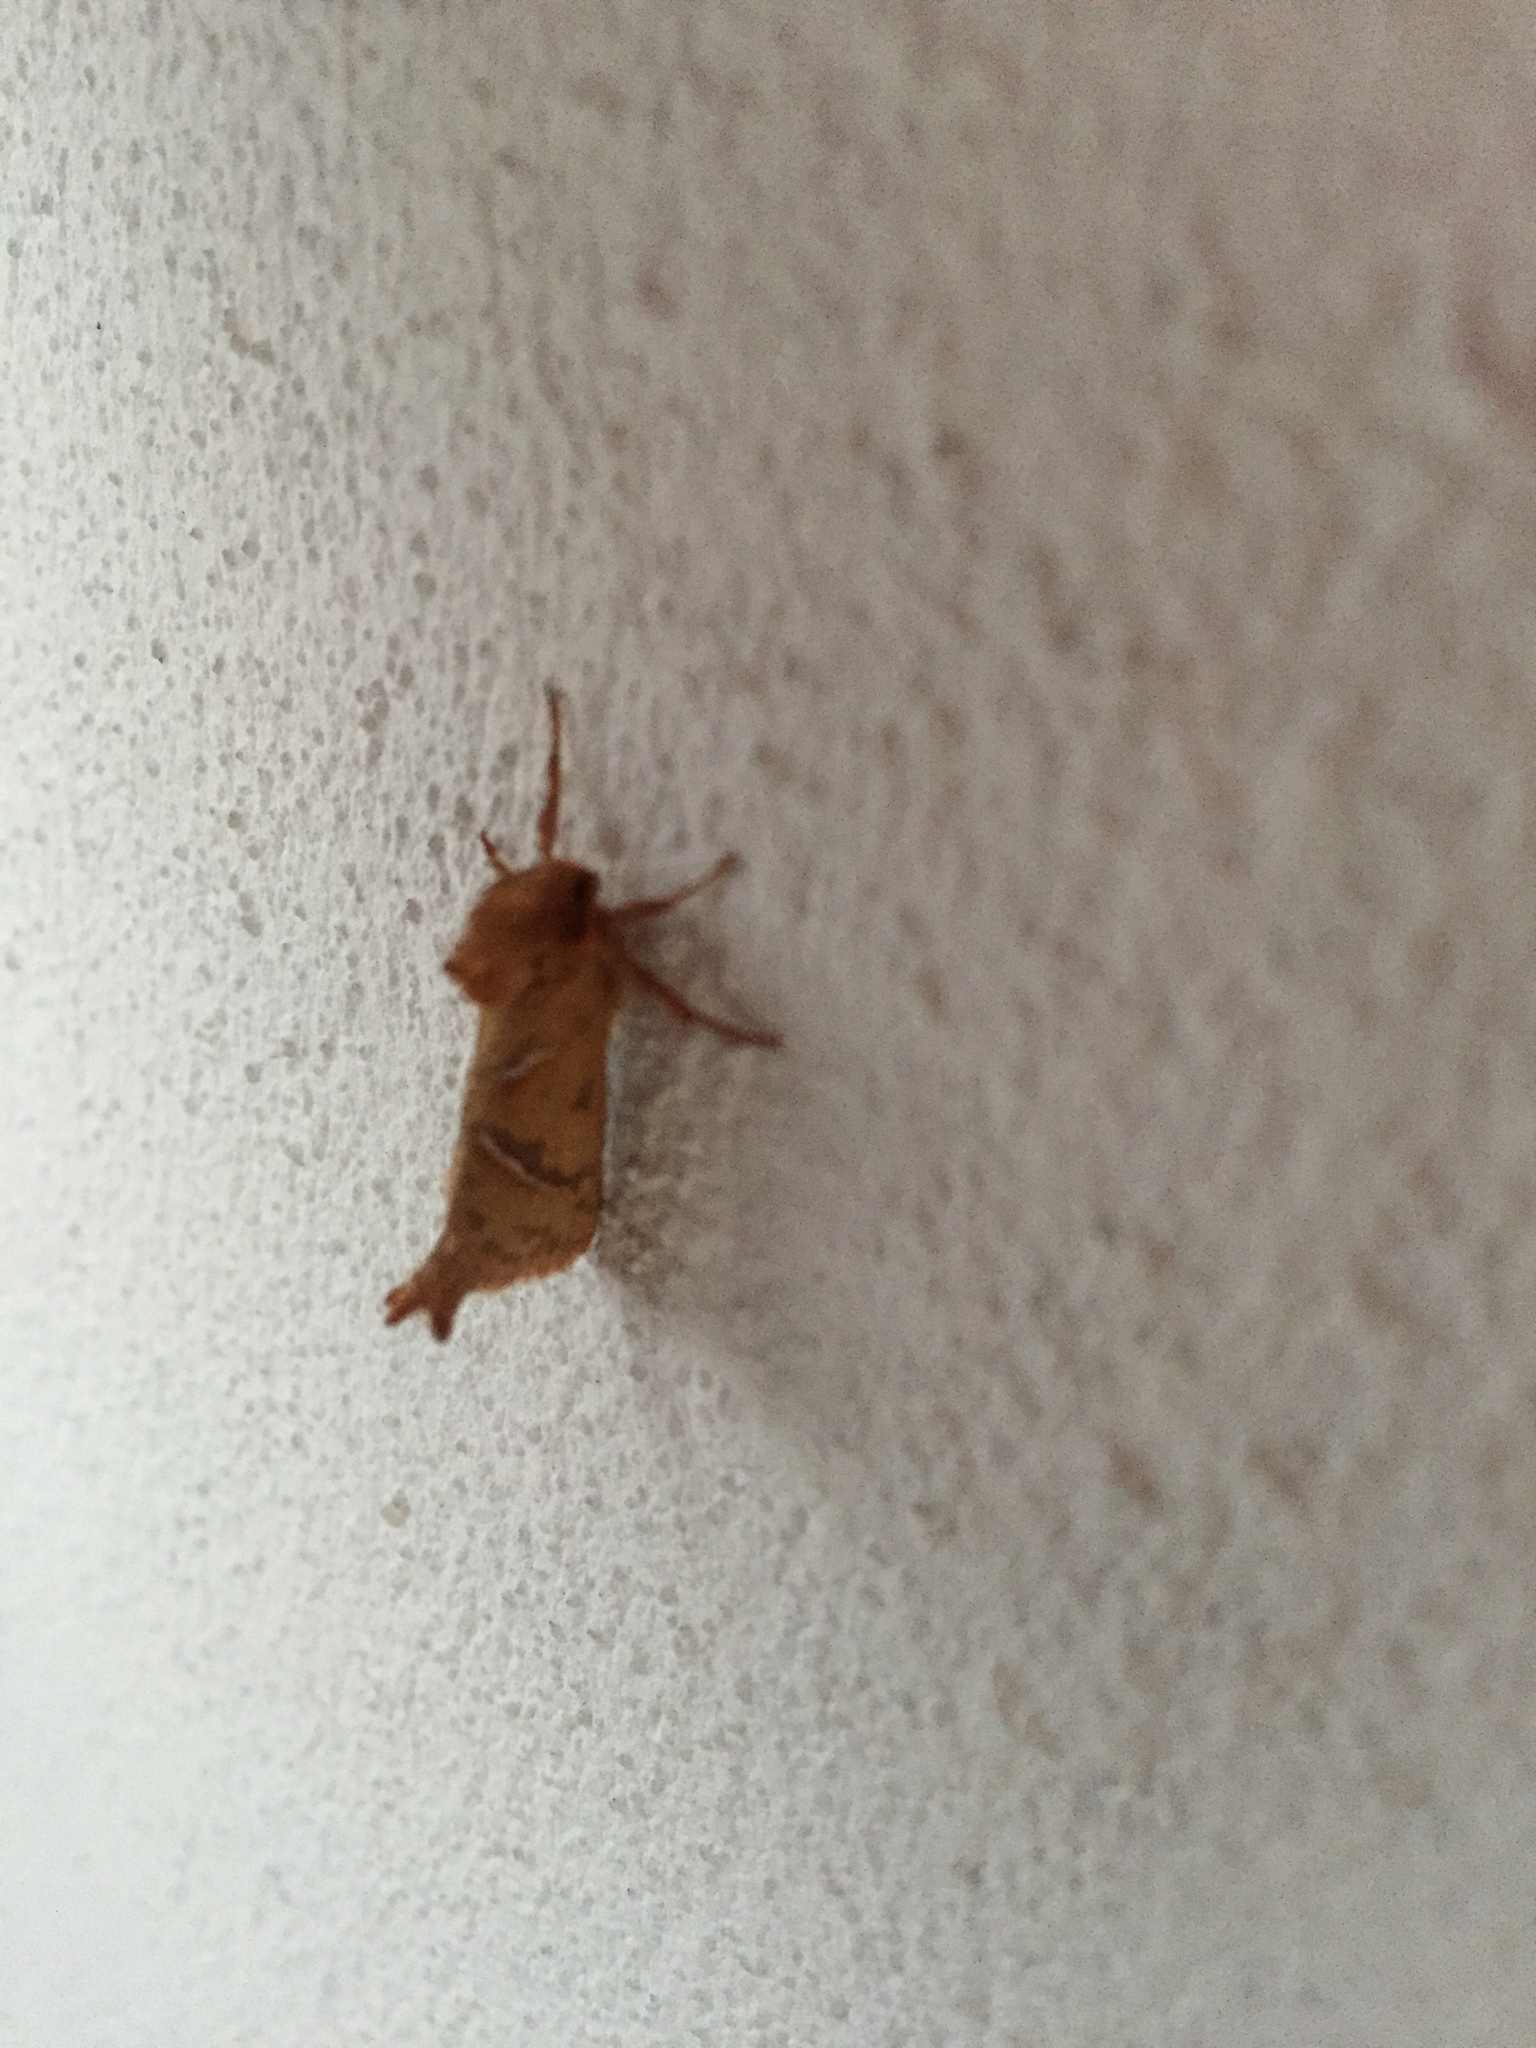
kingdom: Animalia
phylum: Arthropoda
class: Insecta
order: Lepidoptera
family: Hepialidae
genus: Triodia
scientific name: Triodia sylvina
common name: Orange swift
